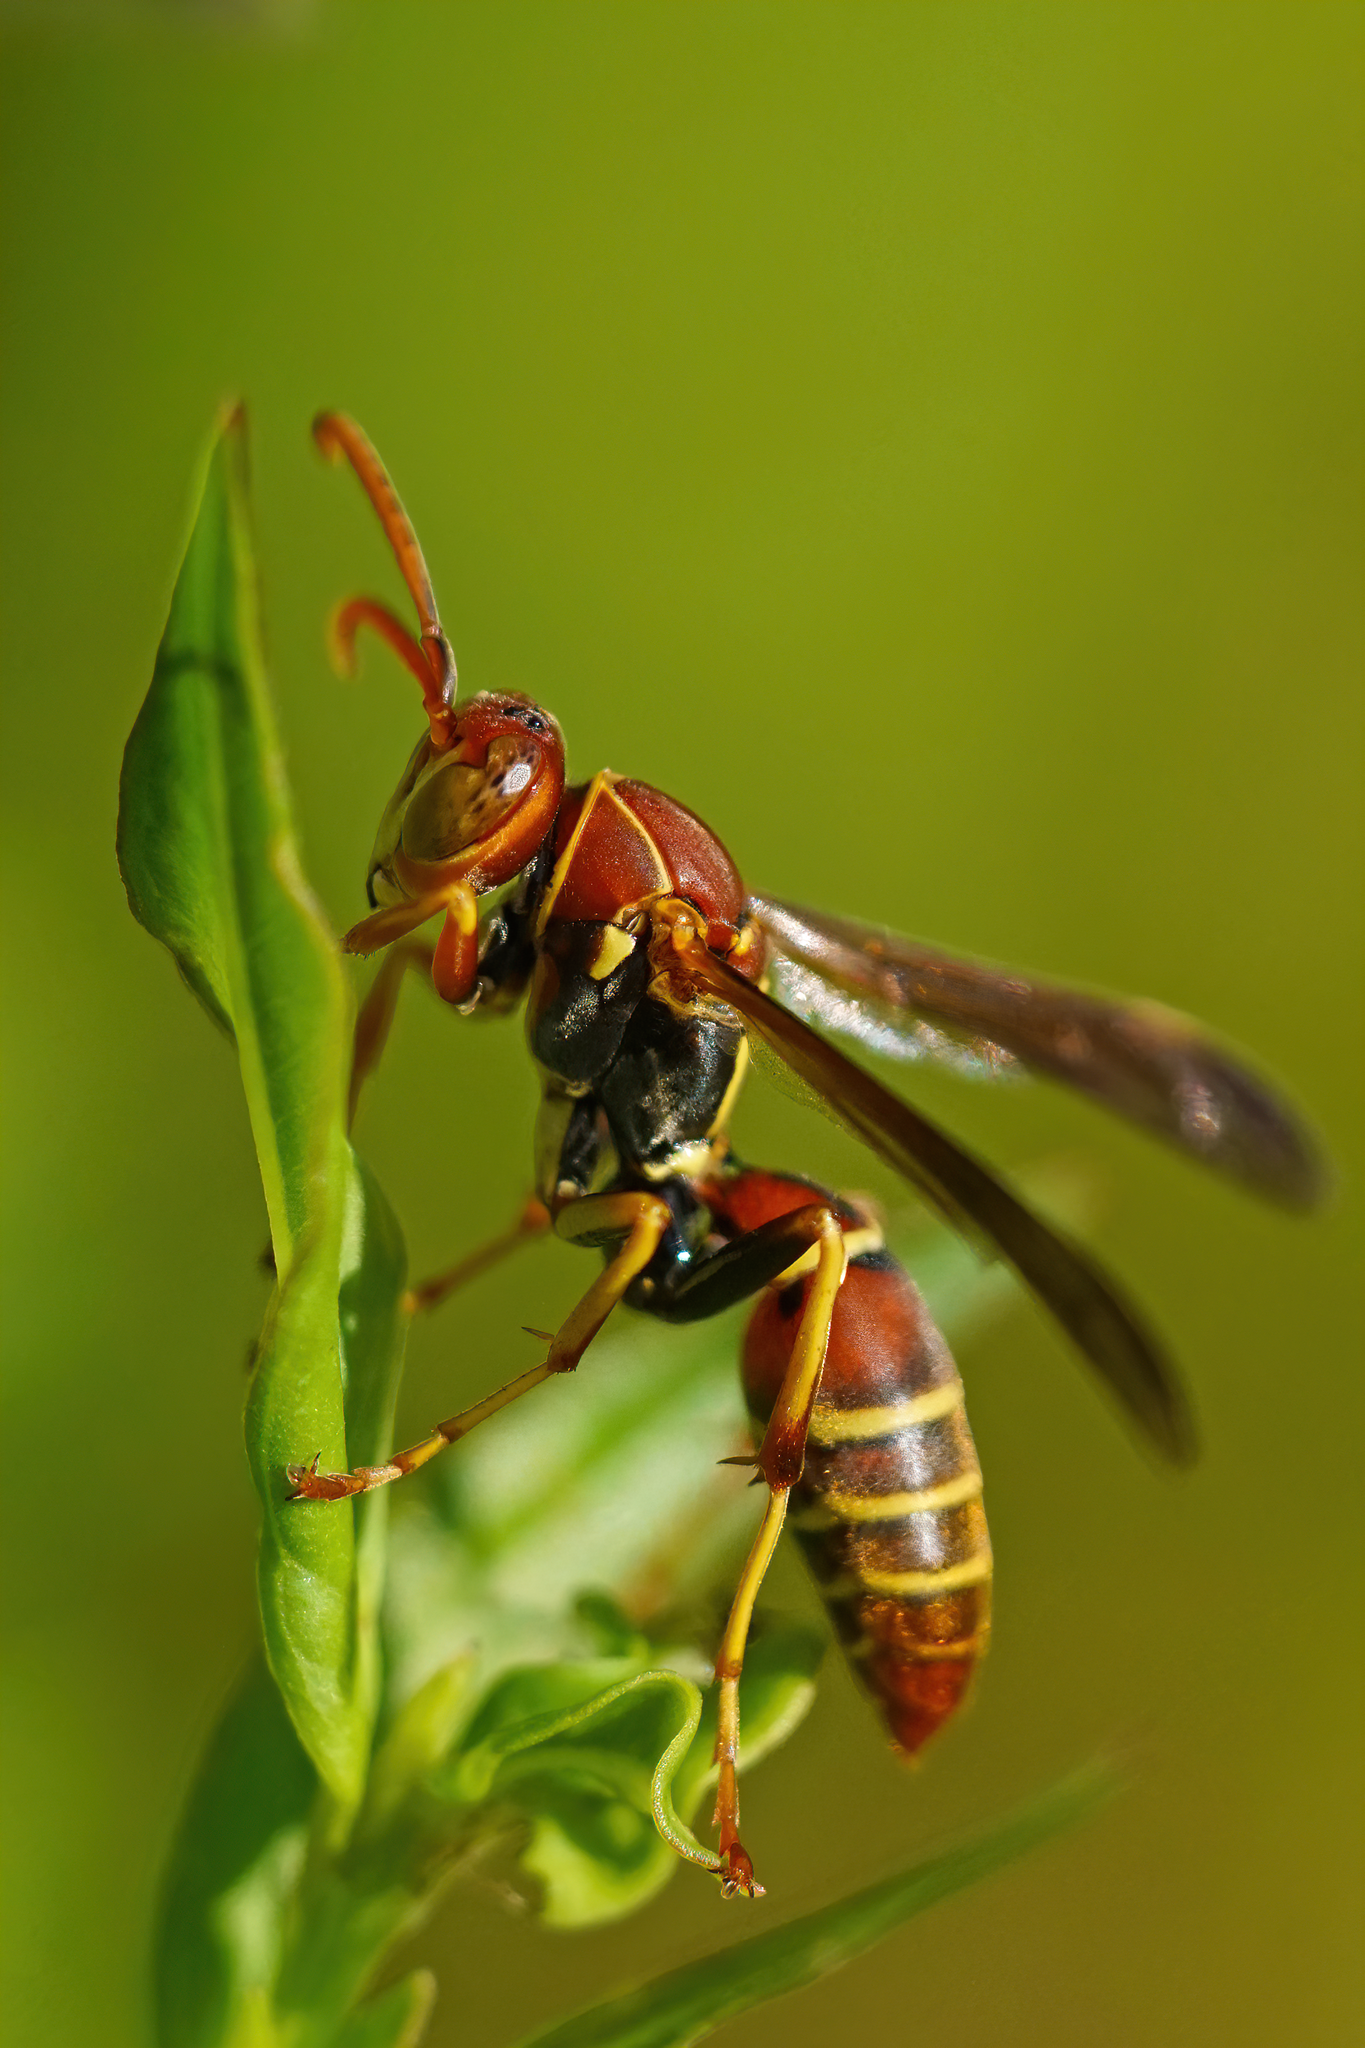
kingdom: Animalia
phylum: Arthropoda
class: Insecta
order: Hymenoptera
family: Eumenidae
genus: Polistes
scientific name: Polistes dorsalis
